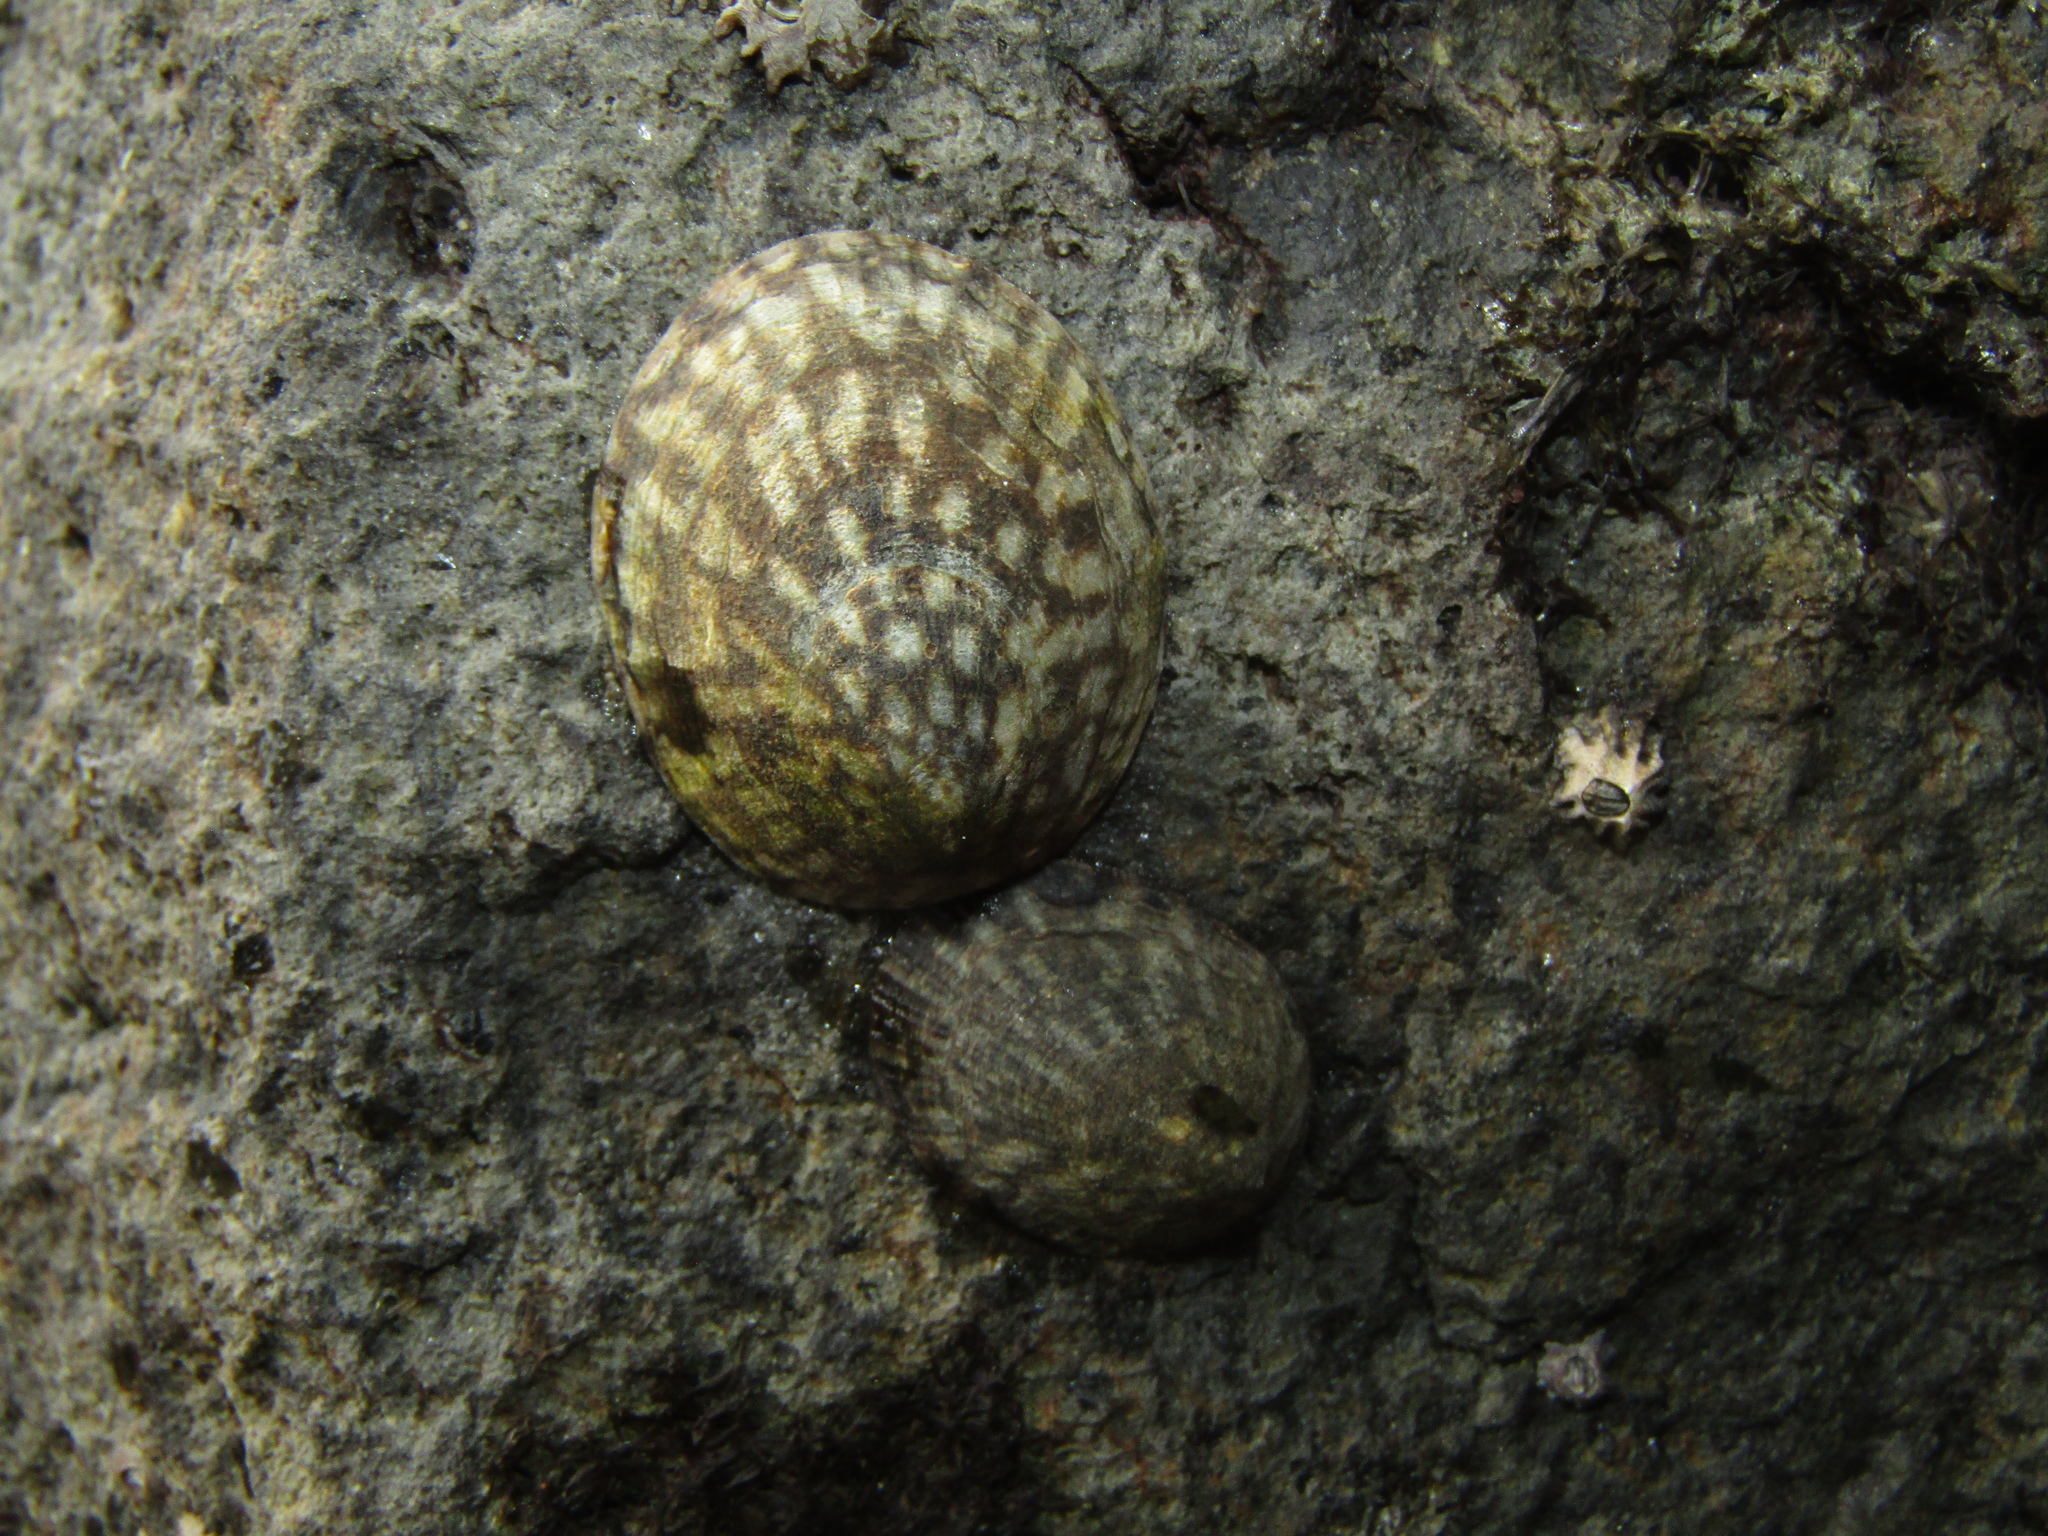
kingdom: Animalia
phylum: Mollusca
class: Gastropoda
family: Lottiidae
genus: Notoacmea
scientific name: Notoacmea pileopsis
